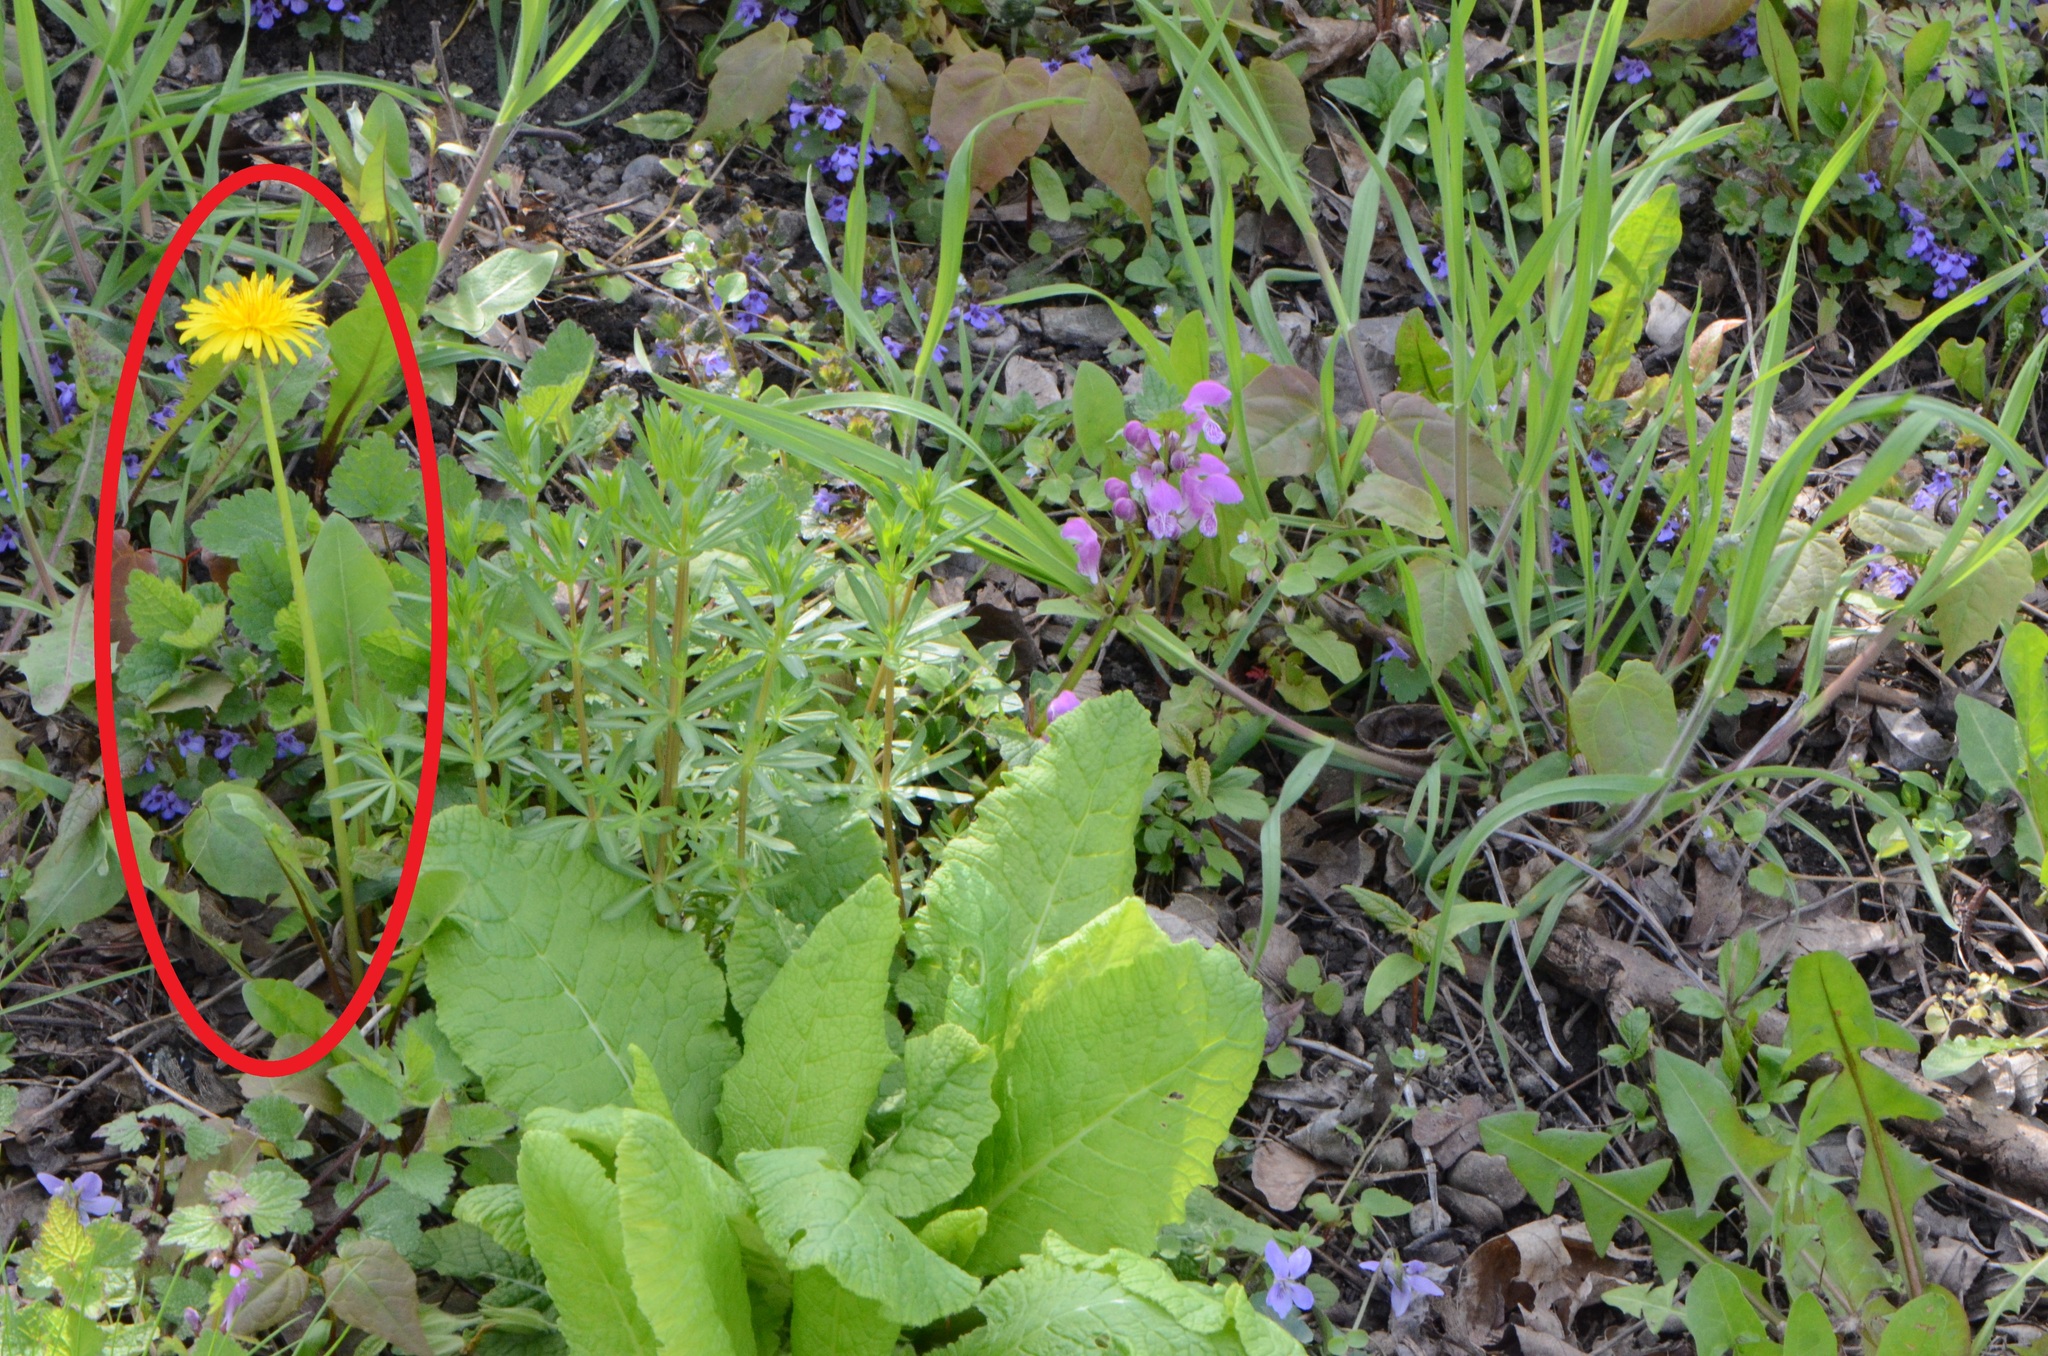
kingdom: Plantae
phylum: Tracheophyta
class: Magnoliopsida
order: Asterales
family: Asteraceae
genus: Taraxacum
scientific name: Taraxacum officinale
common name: Common dandelion
